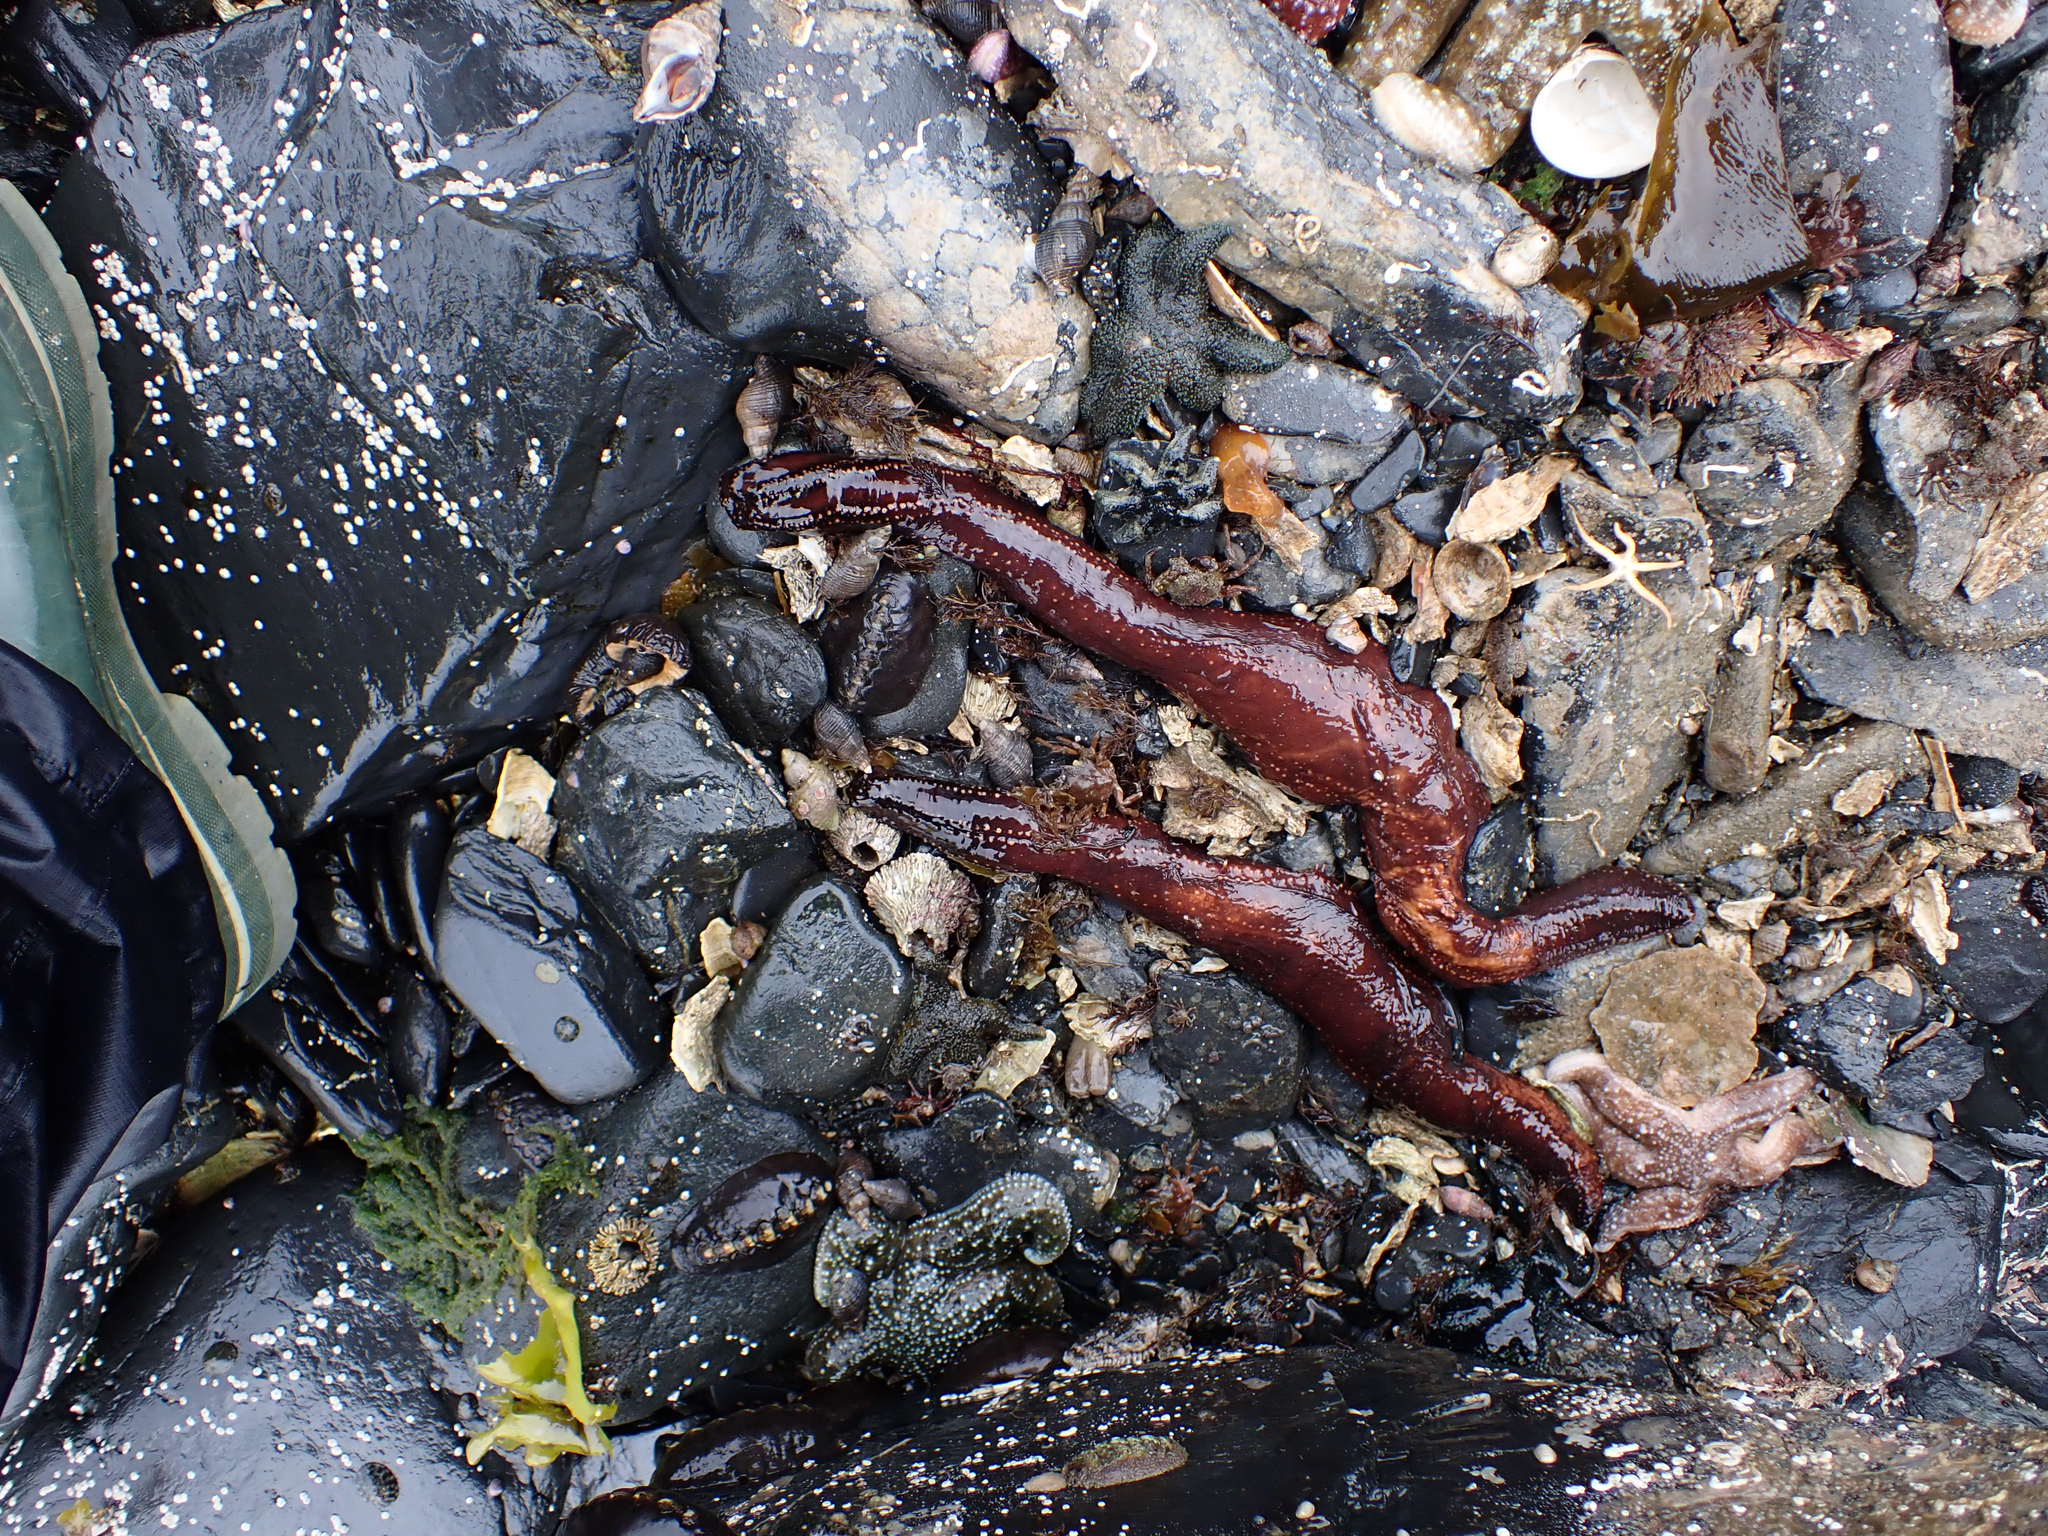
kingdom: Animalia
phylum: Echinodermata
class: Holothuroidea
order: Dendrochirotida
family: Cucumariidae
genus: Cucumaria
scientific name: Cucumaria miniata
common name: Orange sea cucumber
